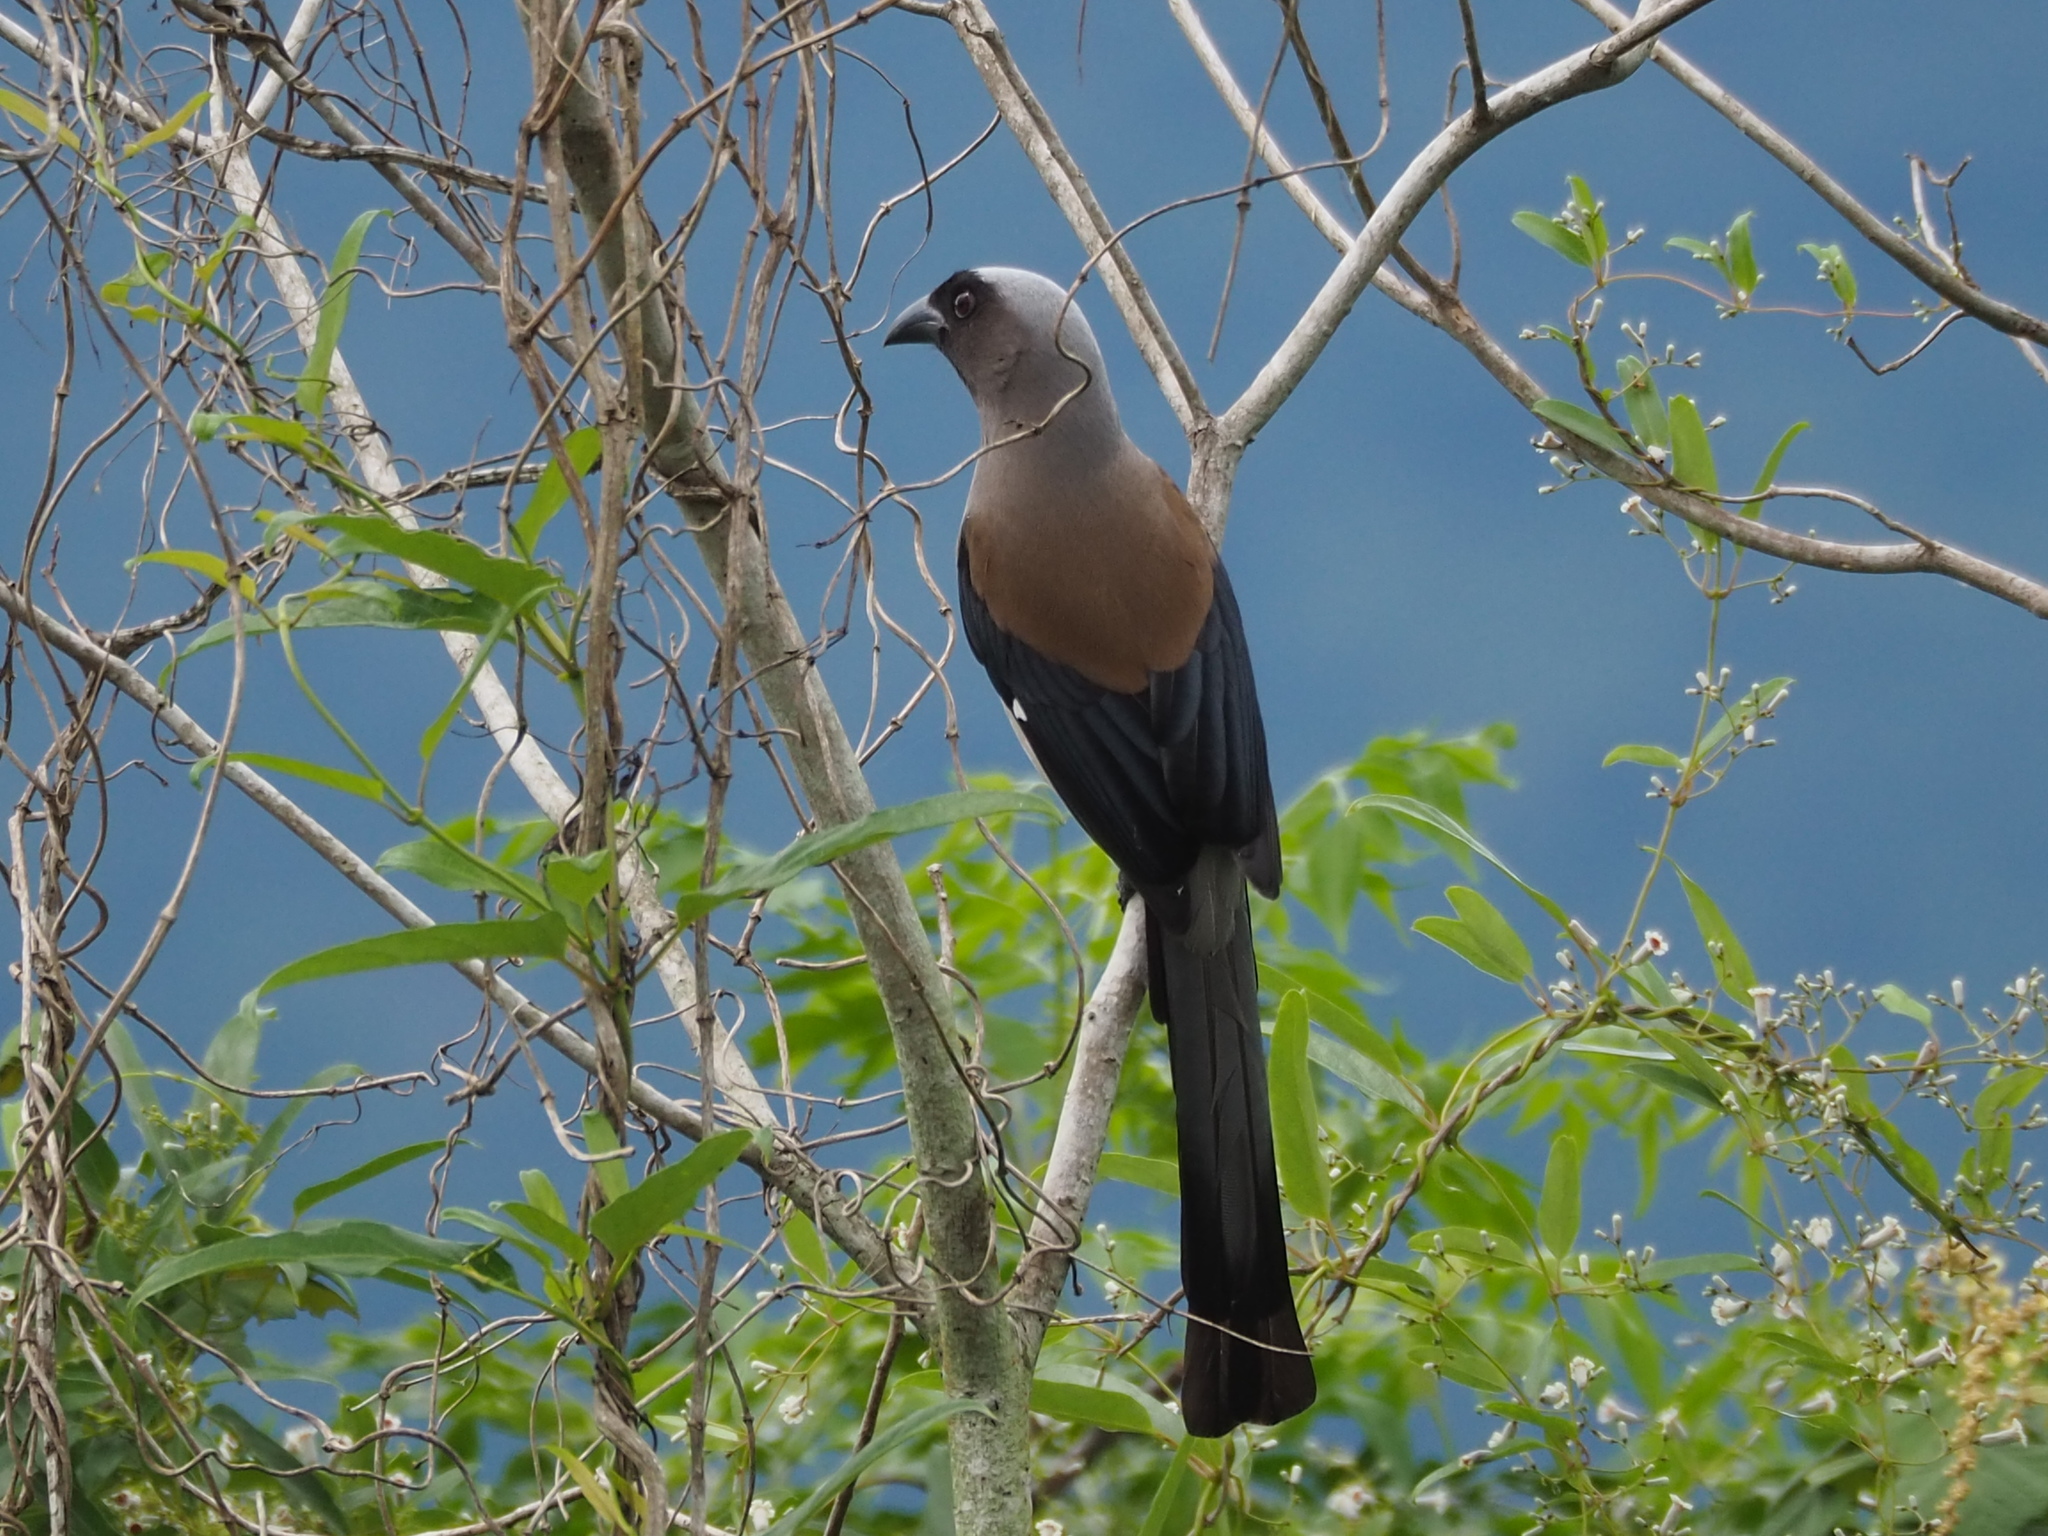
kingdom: Animalia
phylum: Chordata
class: Aves
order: Passeriformes
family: Corvidae
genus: Dendrocitta
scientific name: Dendrocitta formosae
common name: Grey treepie
